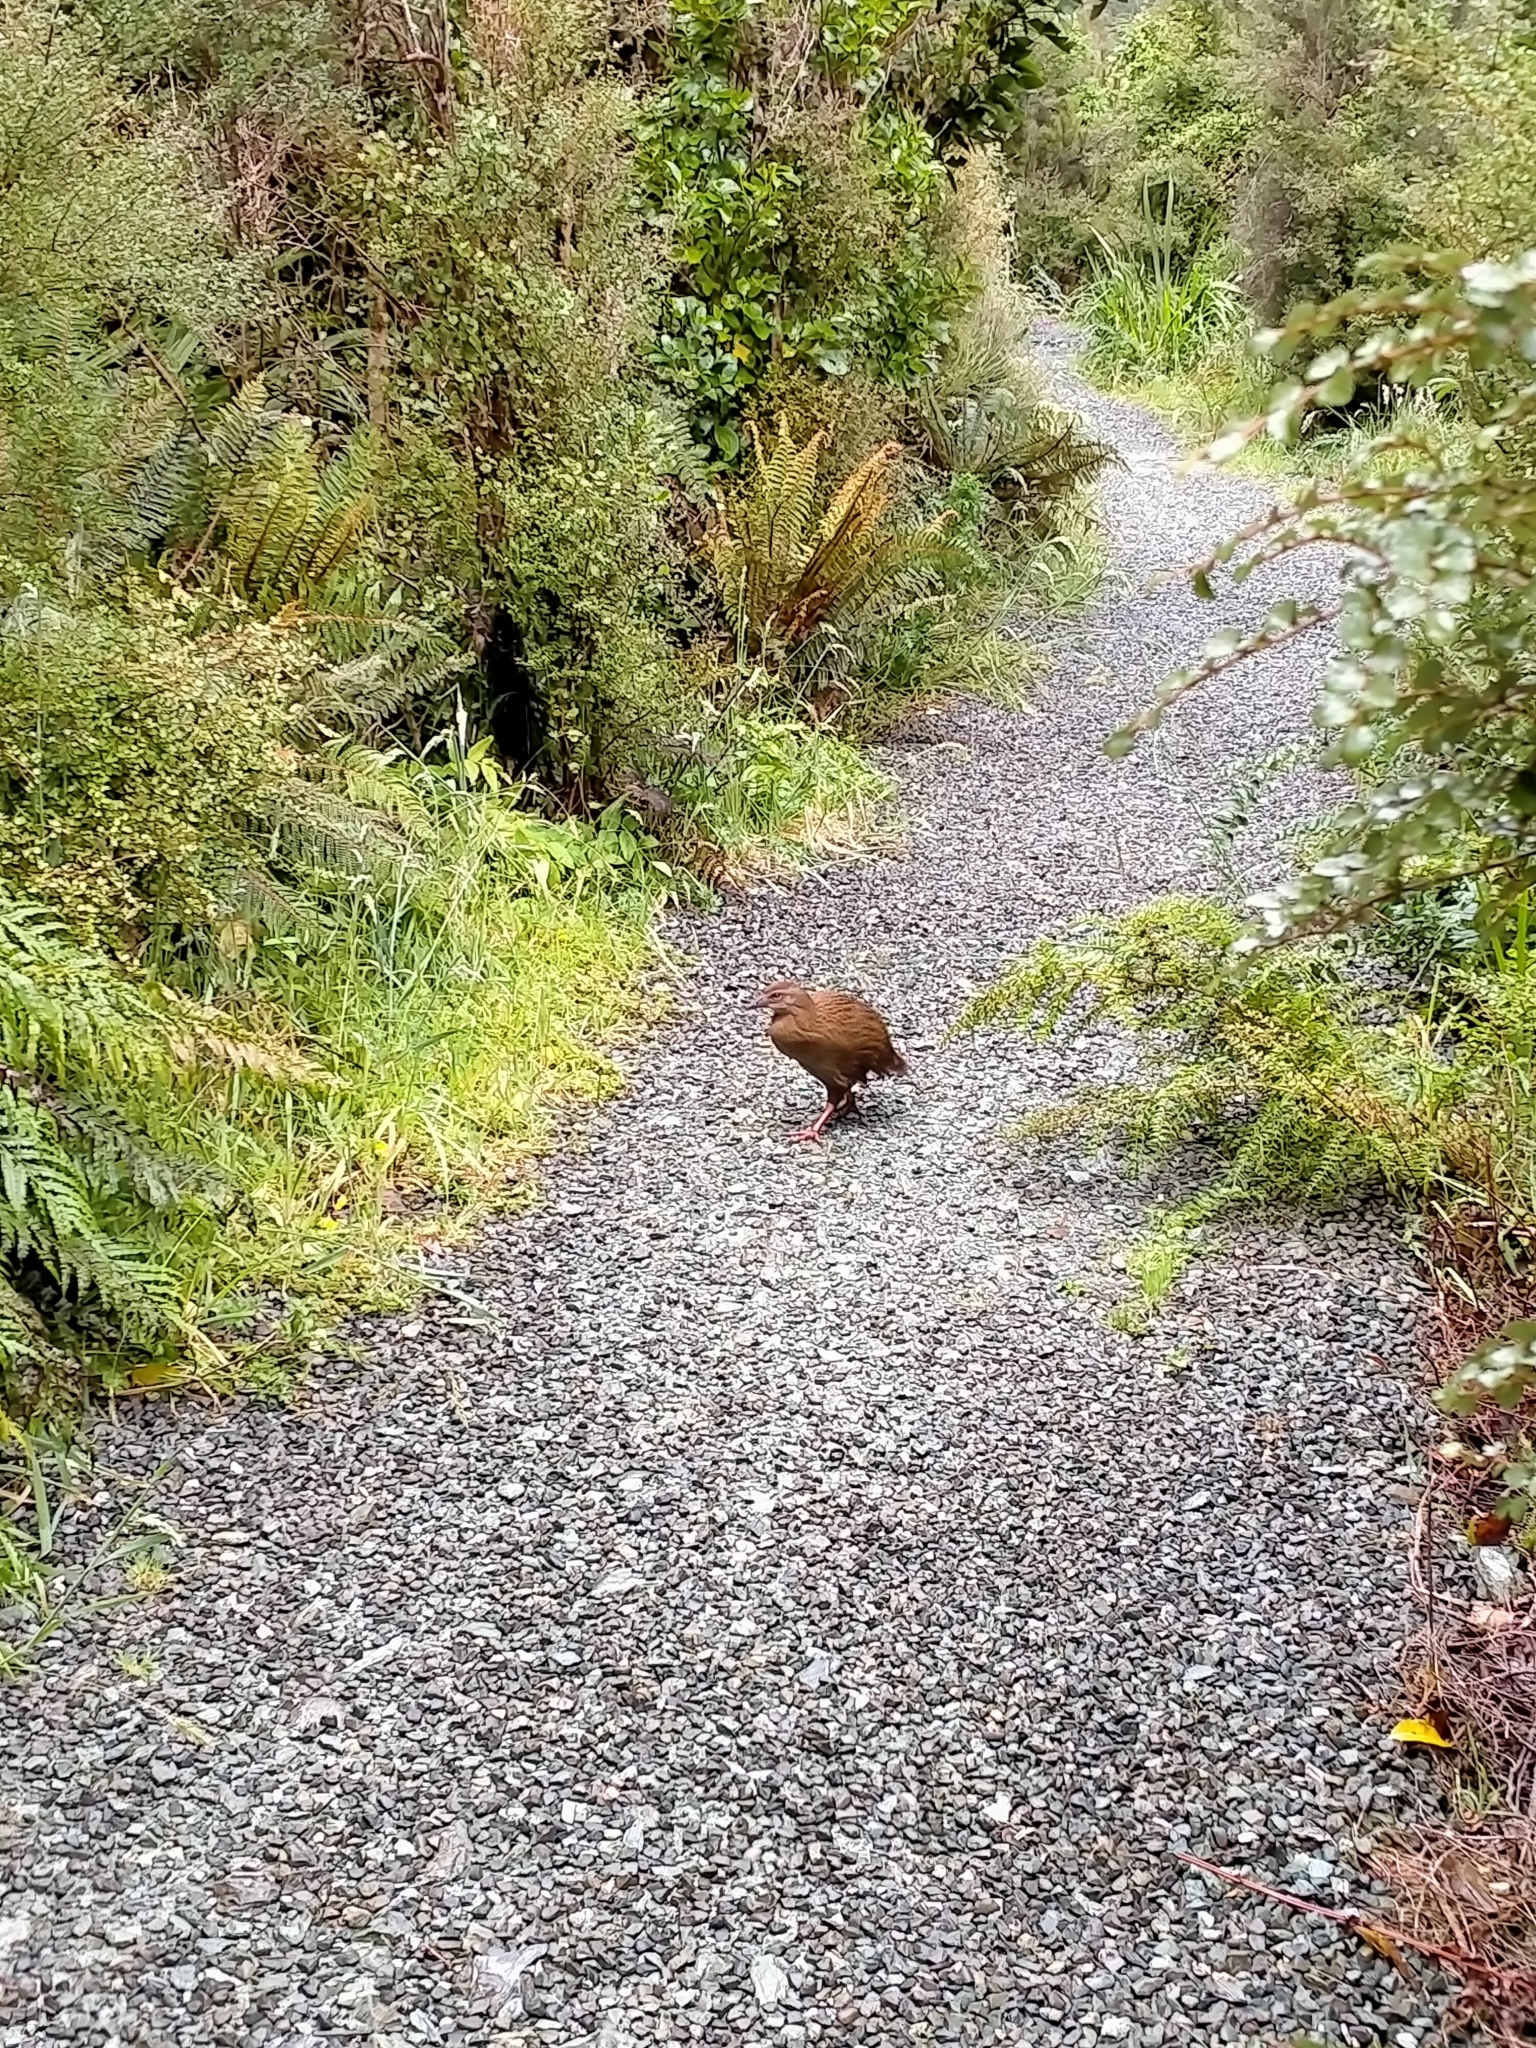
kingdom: Animalia
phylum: Chordata
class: Aves
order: Gruiformes
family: Rallidae
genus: Gallirallus
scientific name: Gallirallus australis
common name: Weka
